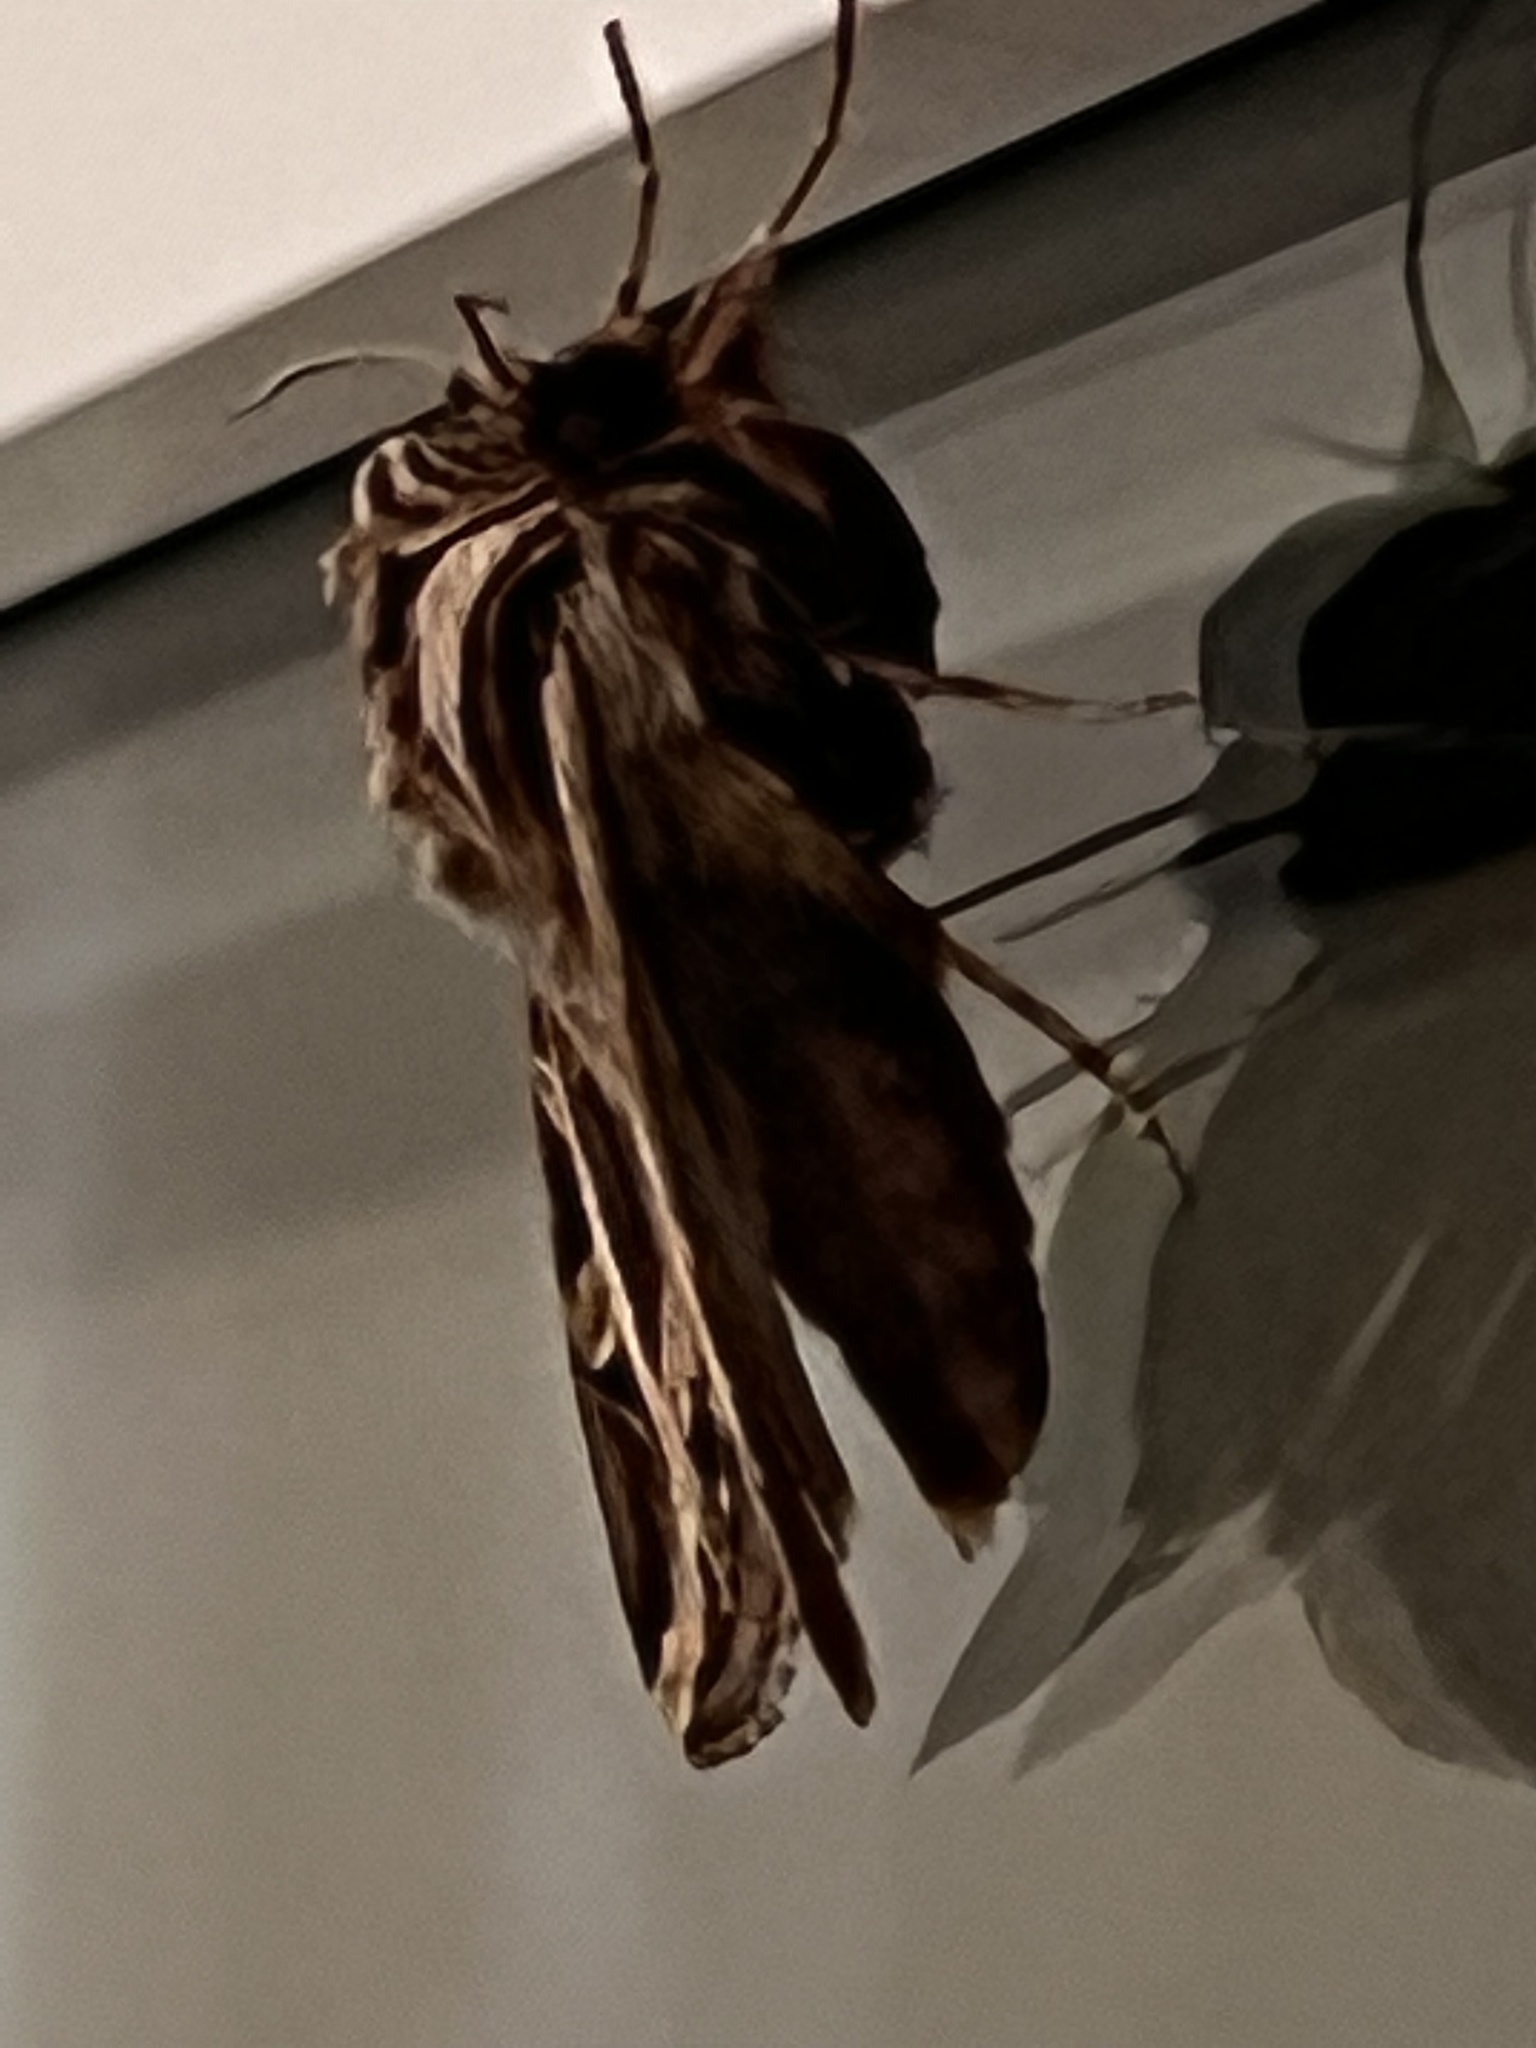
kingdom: Animalia
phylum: Arthropoda
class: Insecta
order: Lepidoptera
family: Noctuidae
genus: Dargida
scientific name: Dargida procinctus
